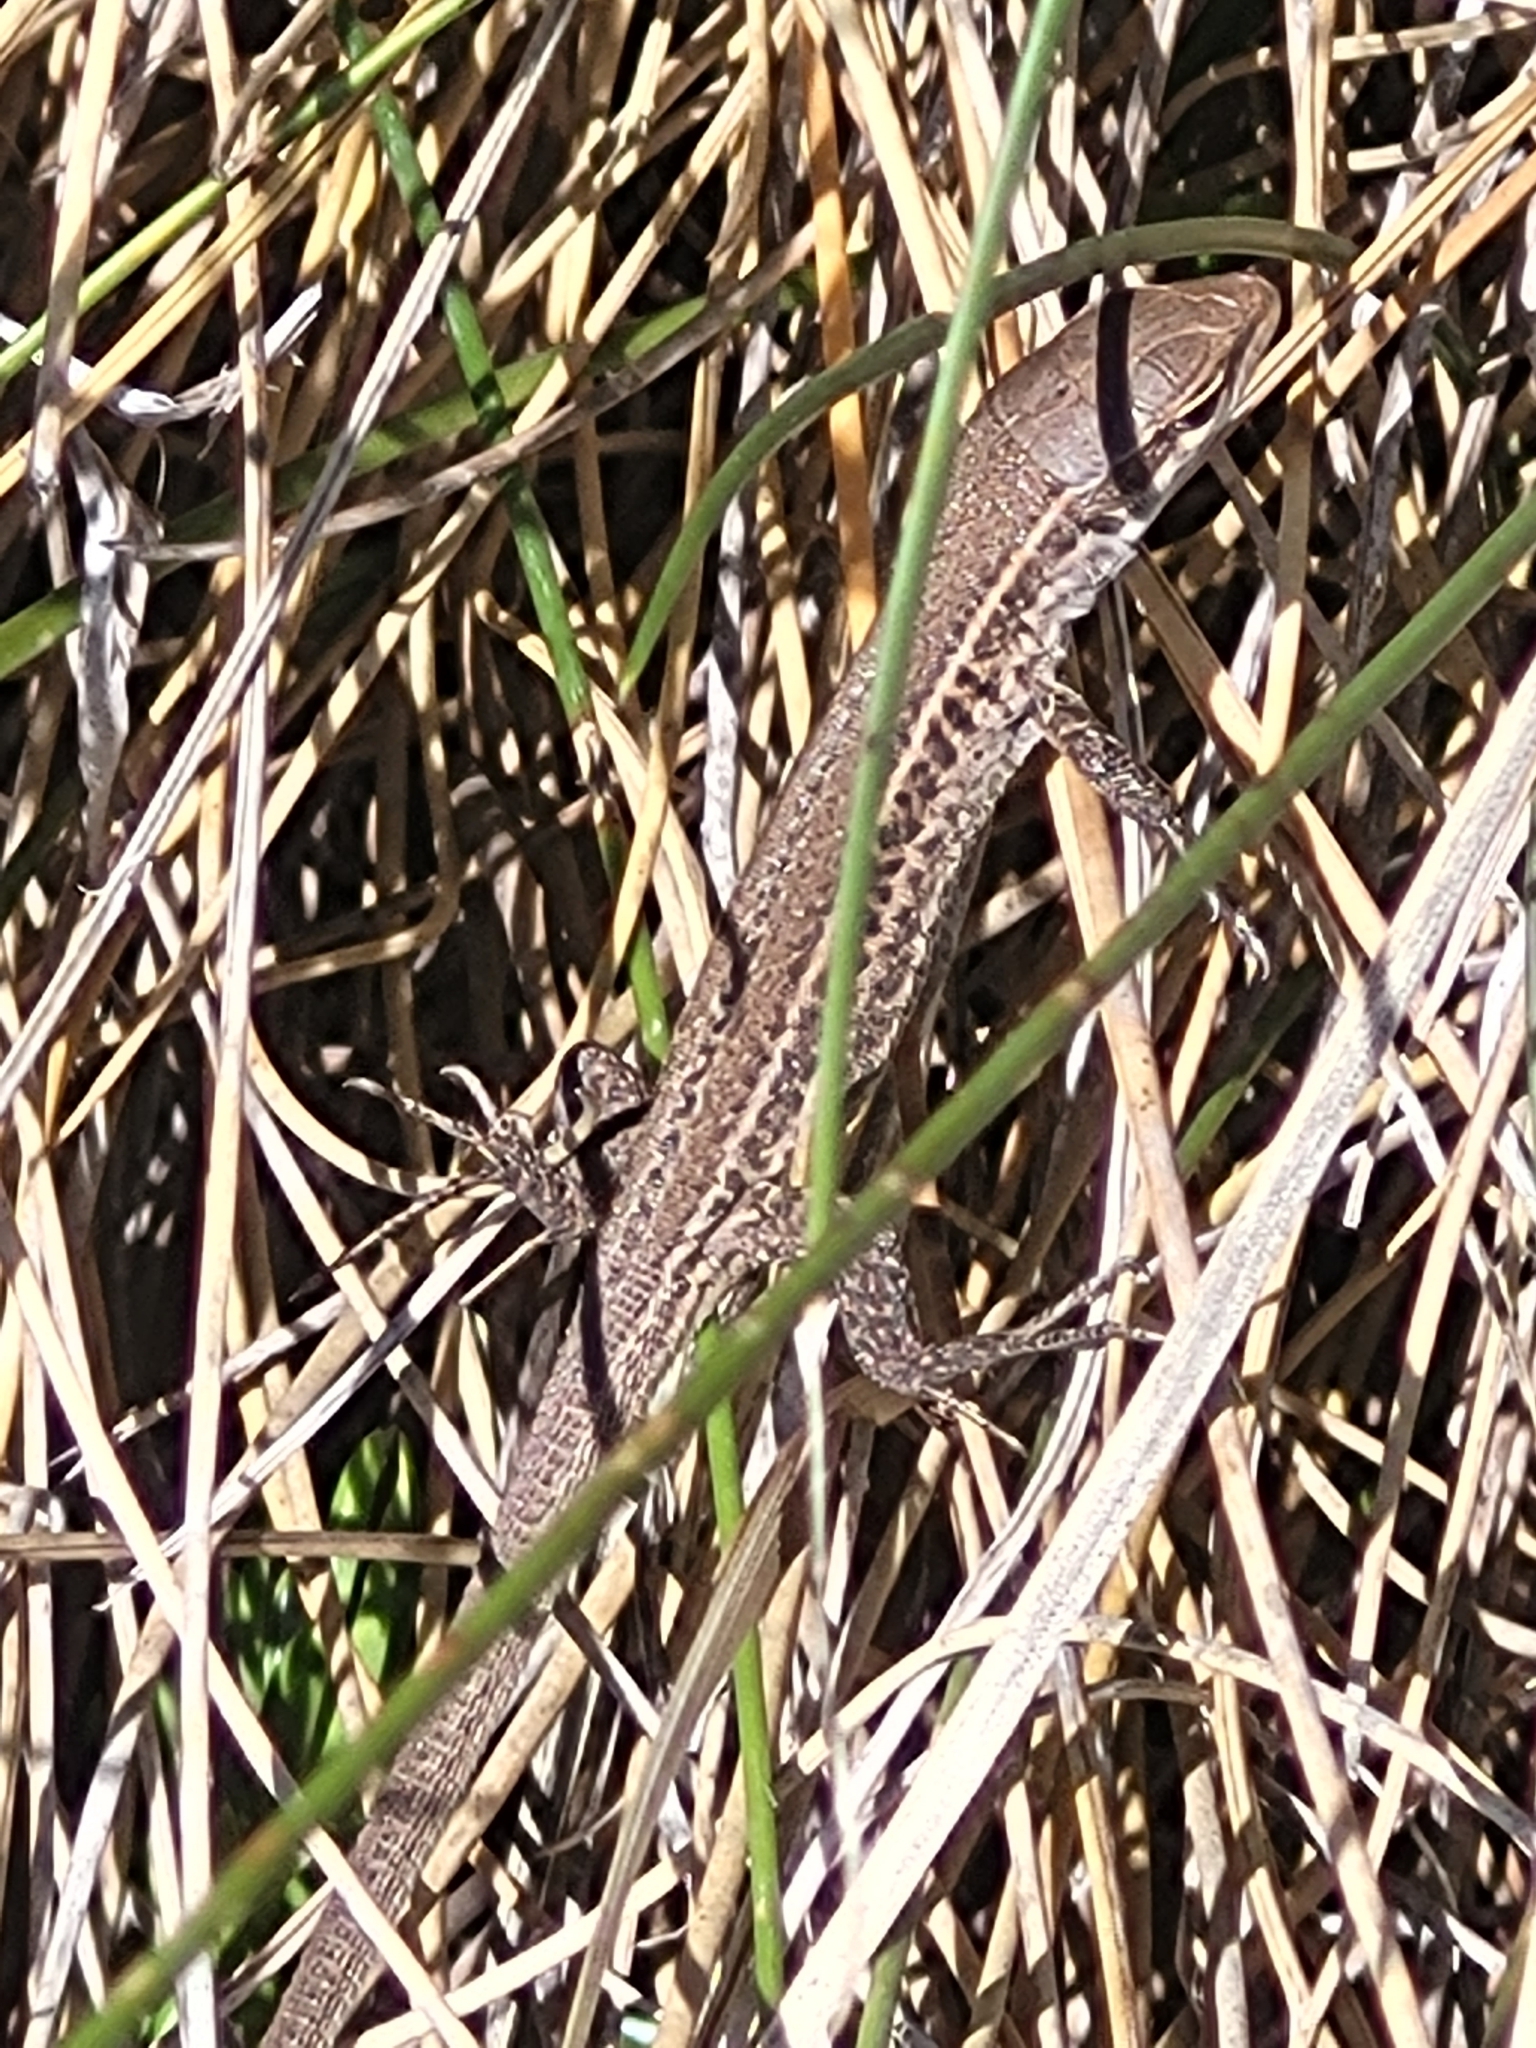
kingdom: Animalia
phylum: Chordata
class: Squamata
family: Lacertidae
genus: Podarcis
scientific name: Podarcis melisellensis
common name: Dalmatian wall lizard
